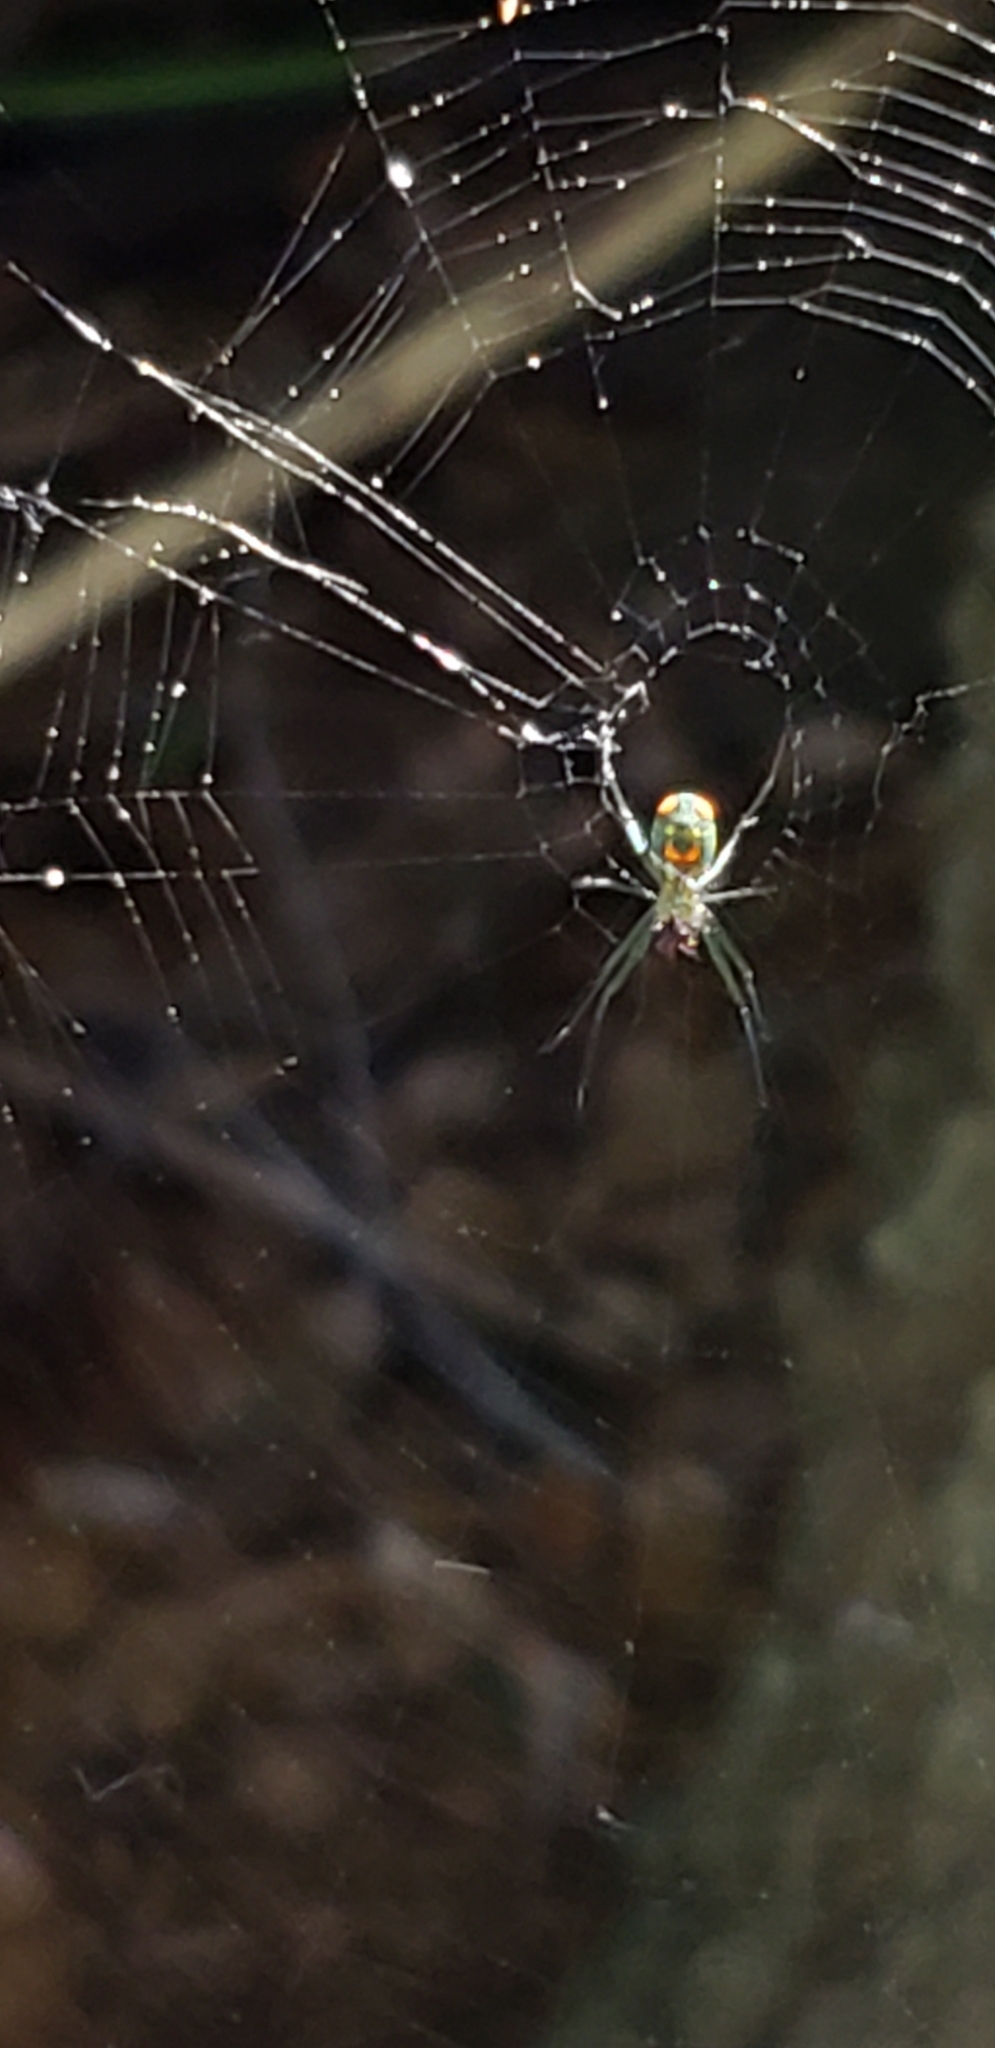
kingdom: Animalia
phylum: Arthropoda
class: Arachnida
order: Araneae
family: Tetragnathidae
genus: Leucauge
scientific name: Leucauge argyrobapta
